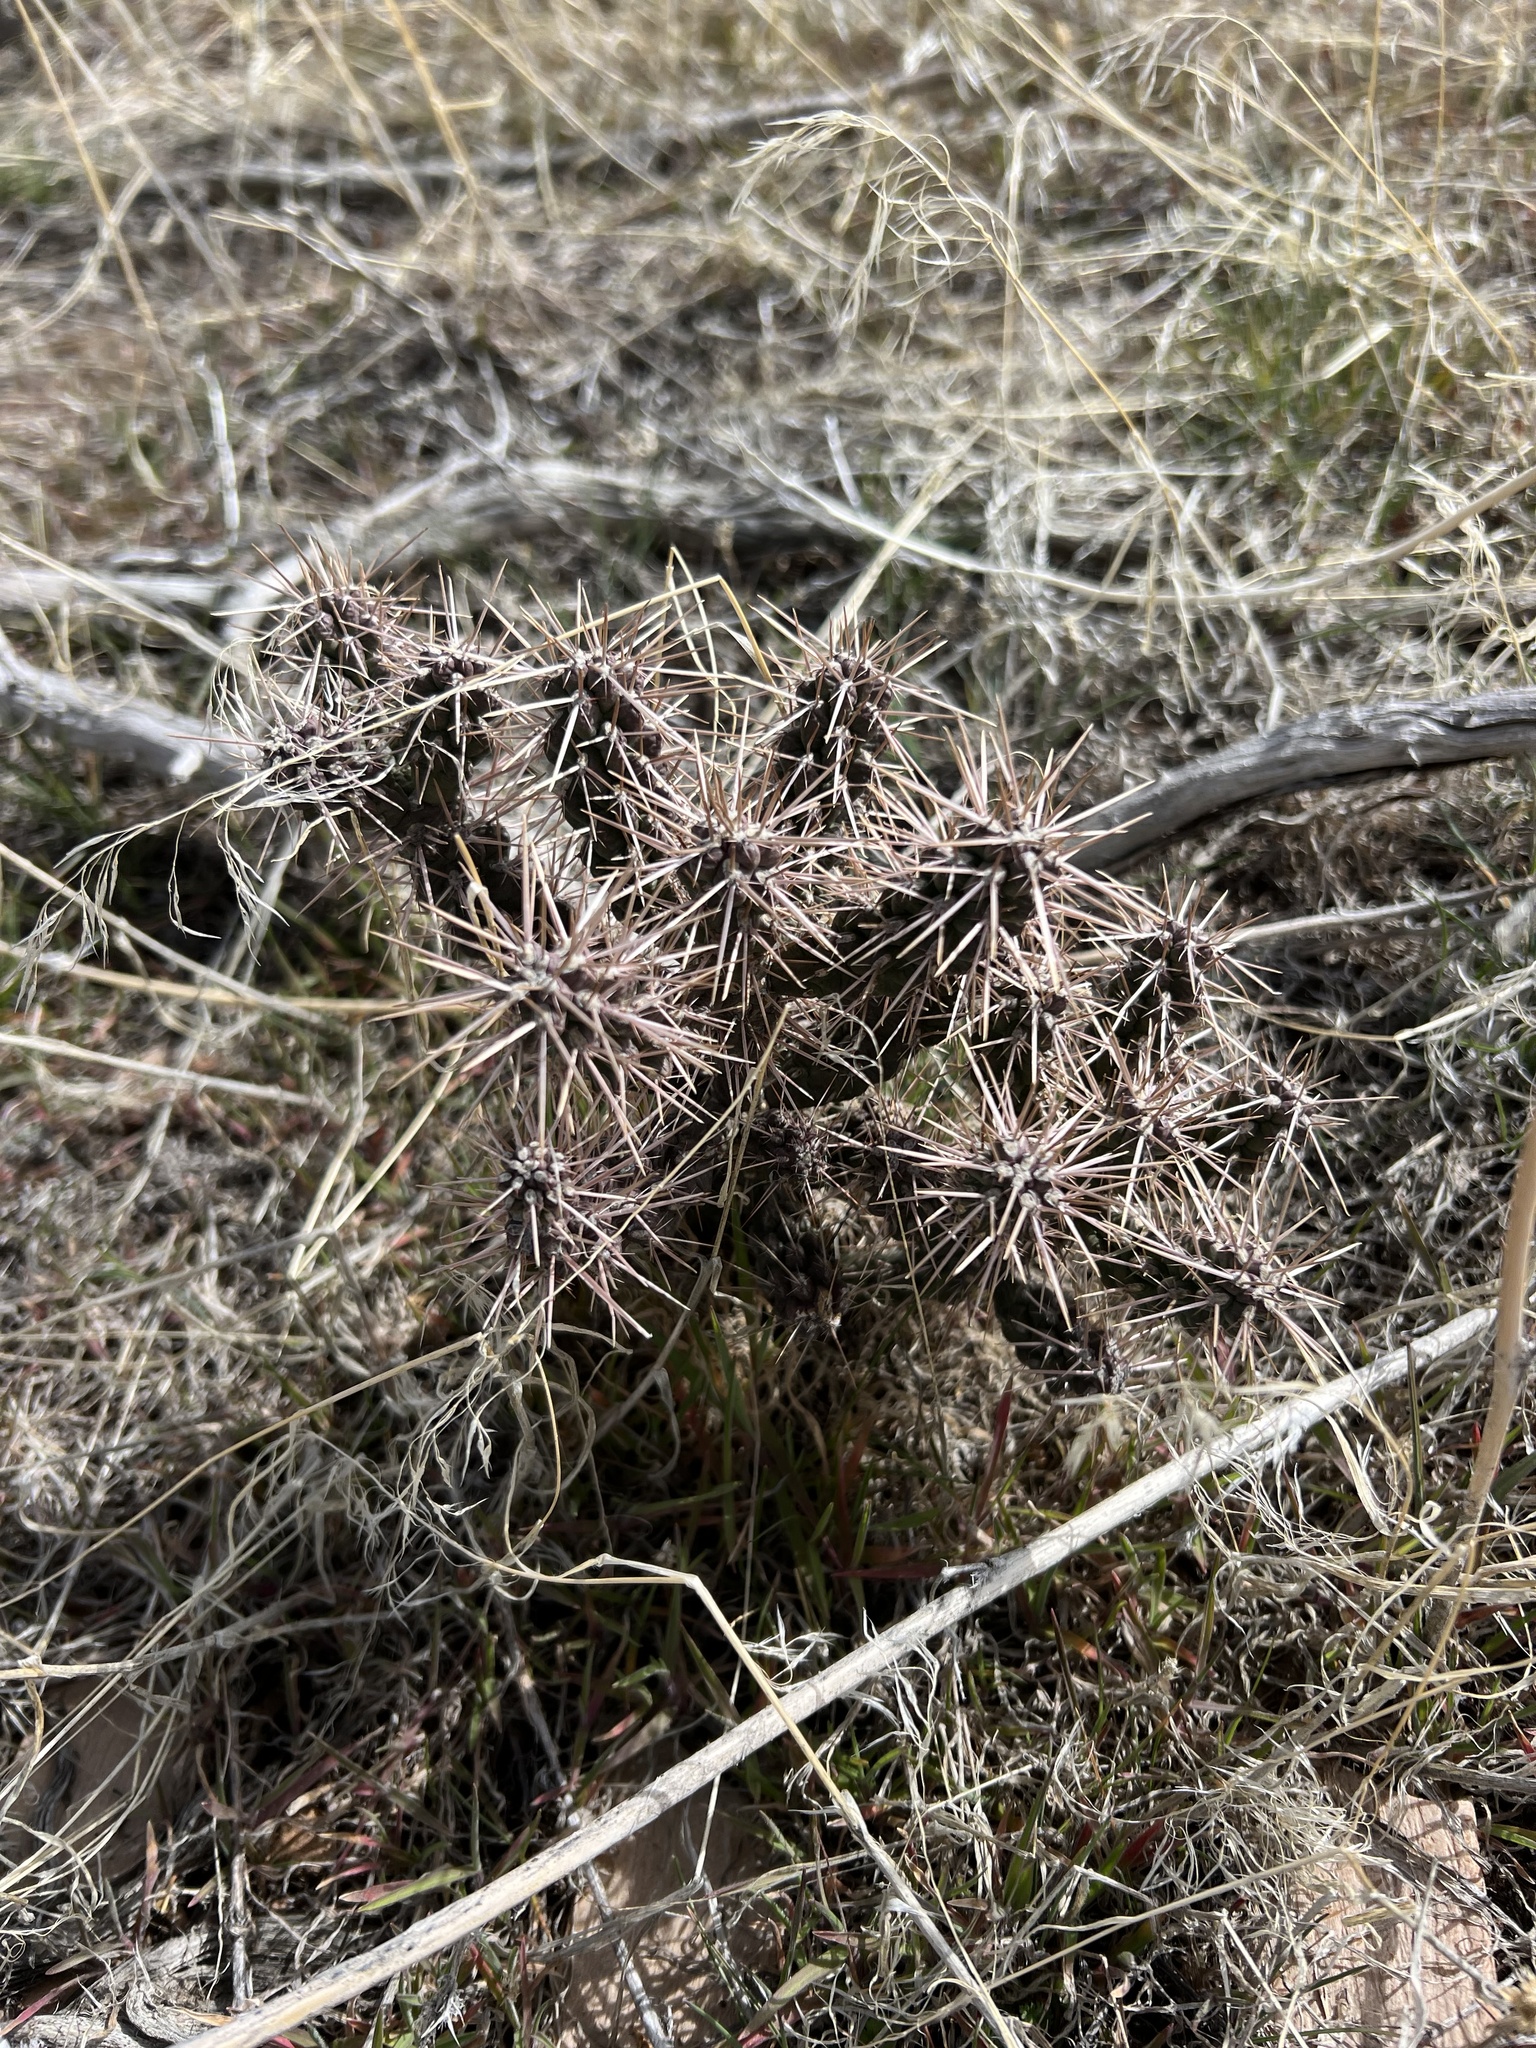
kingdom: Plantae
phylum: Tracheophyta
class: Magnoliopsida
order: Caryophyllales
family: Cactaceae
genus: Cylindropuntia
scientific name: Cylindropuntia whipplei
